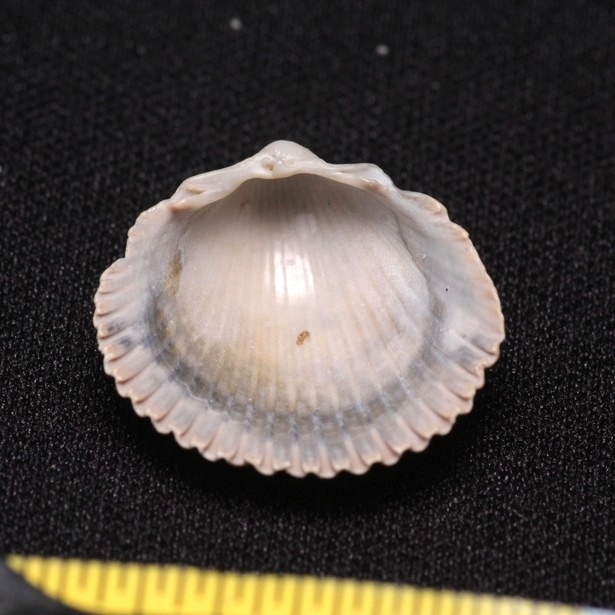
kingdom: Animalia
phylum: Mollusca
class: Bivalvia
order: Cardiida
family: Cardiidae
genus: Dinocardium
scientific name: Dinocardium robustum
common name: Atlantic giant cockle
